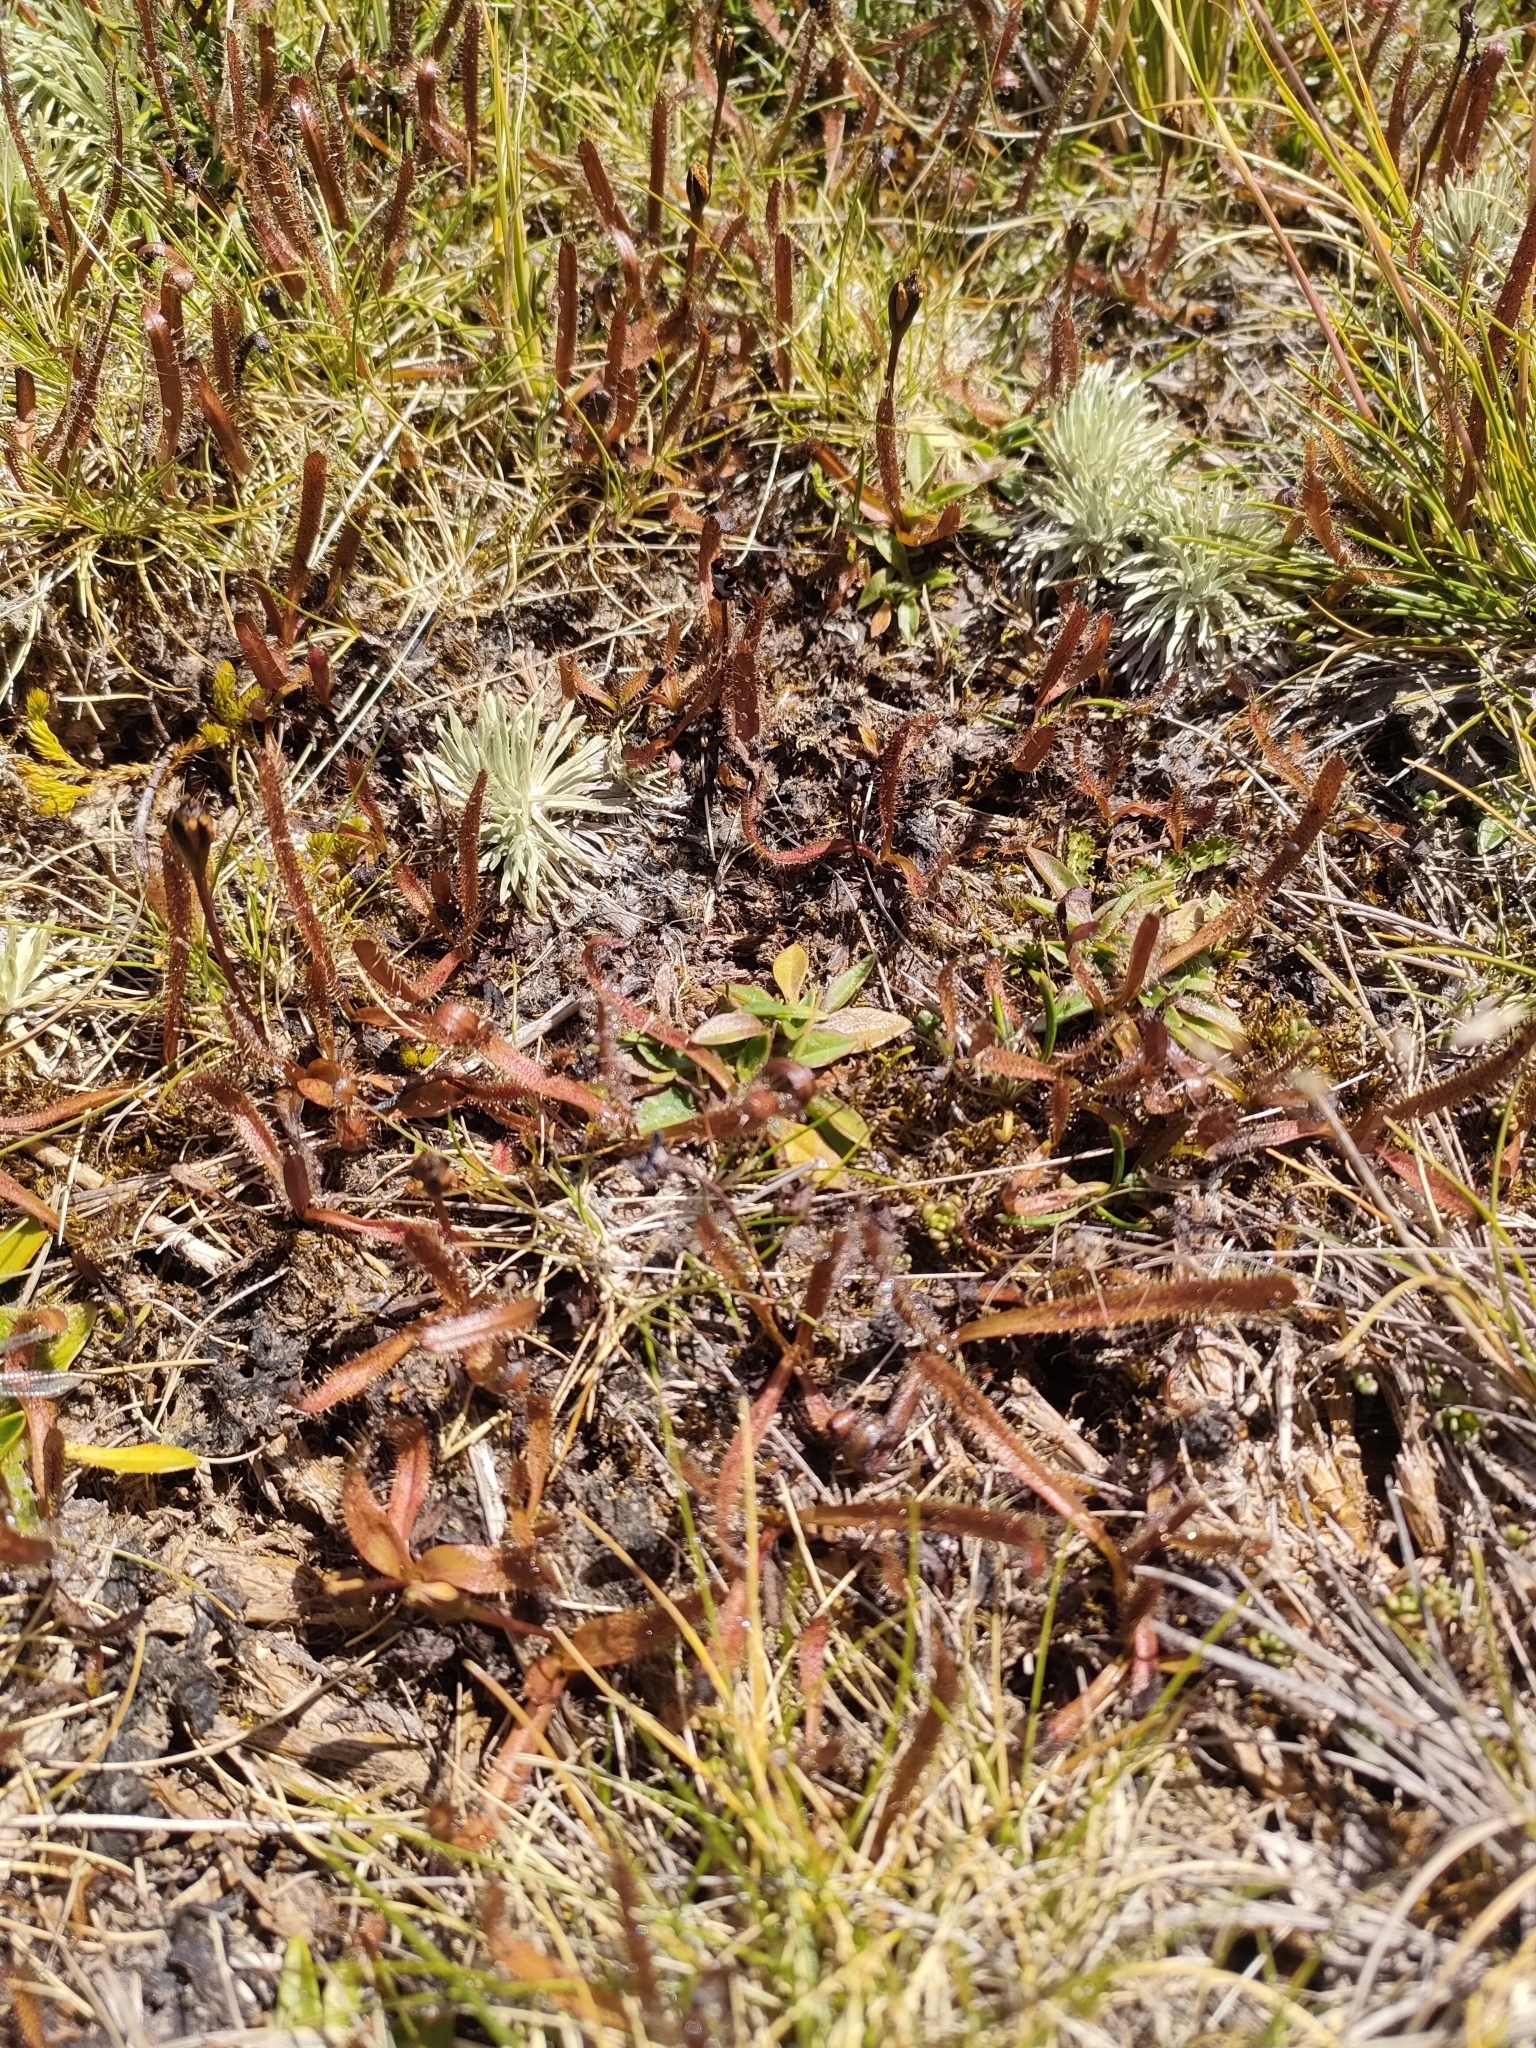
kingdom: Plantae
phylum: Tracheophyta
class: Magnoliopsida
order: Caryophyllales
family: Droseraceae
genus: Drosera
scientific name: Drosera arcturi
